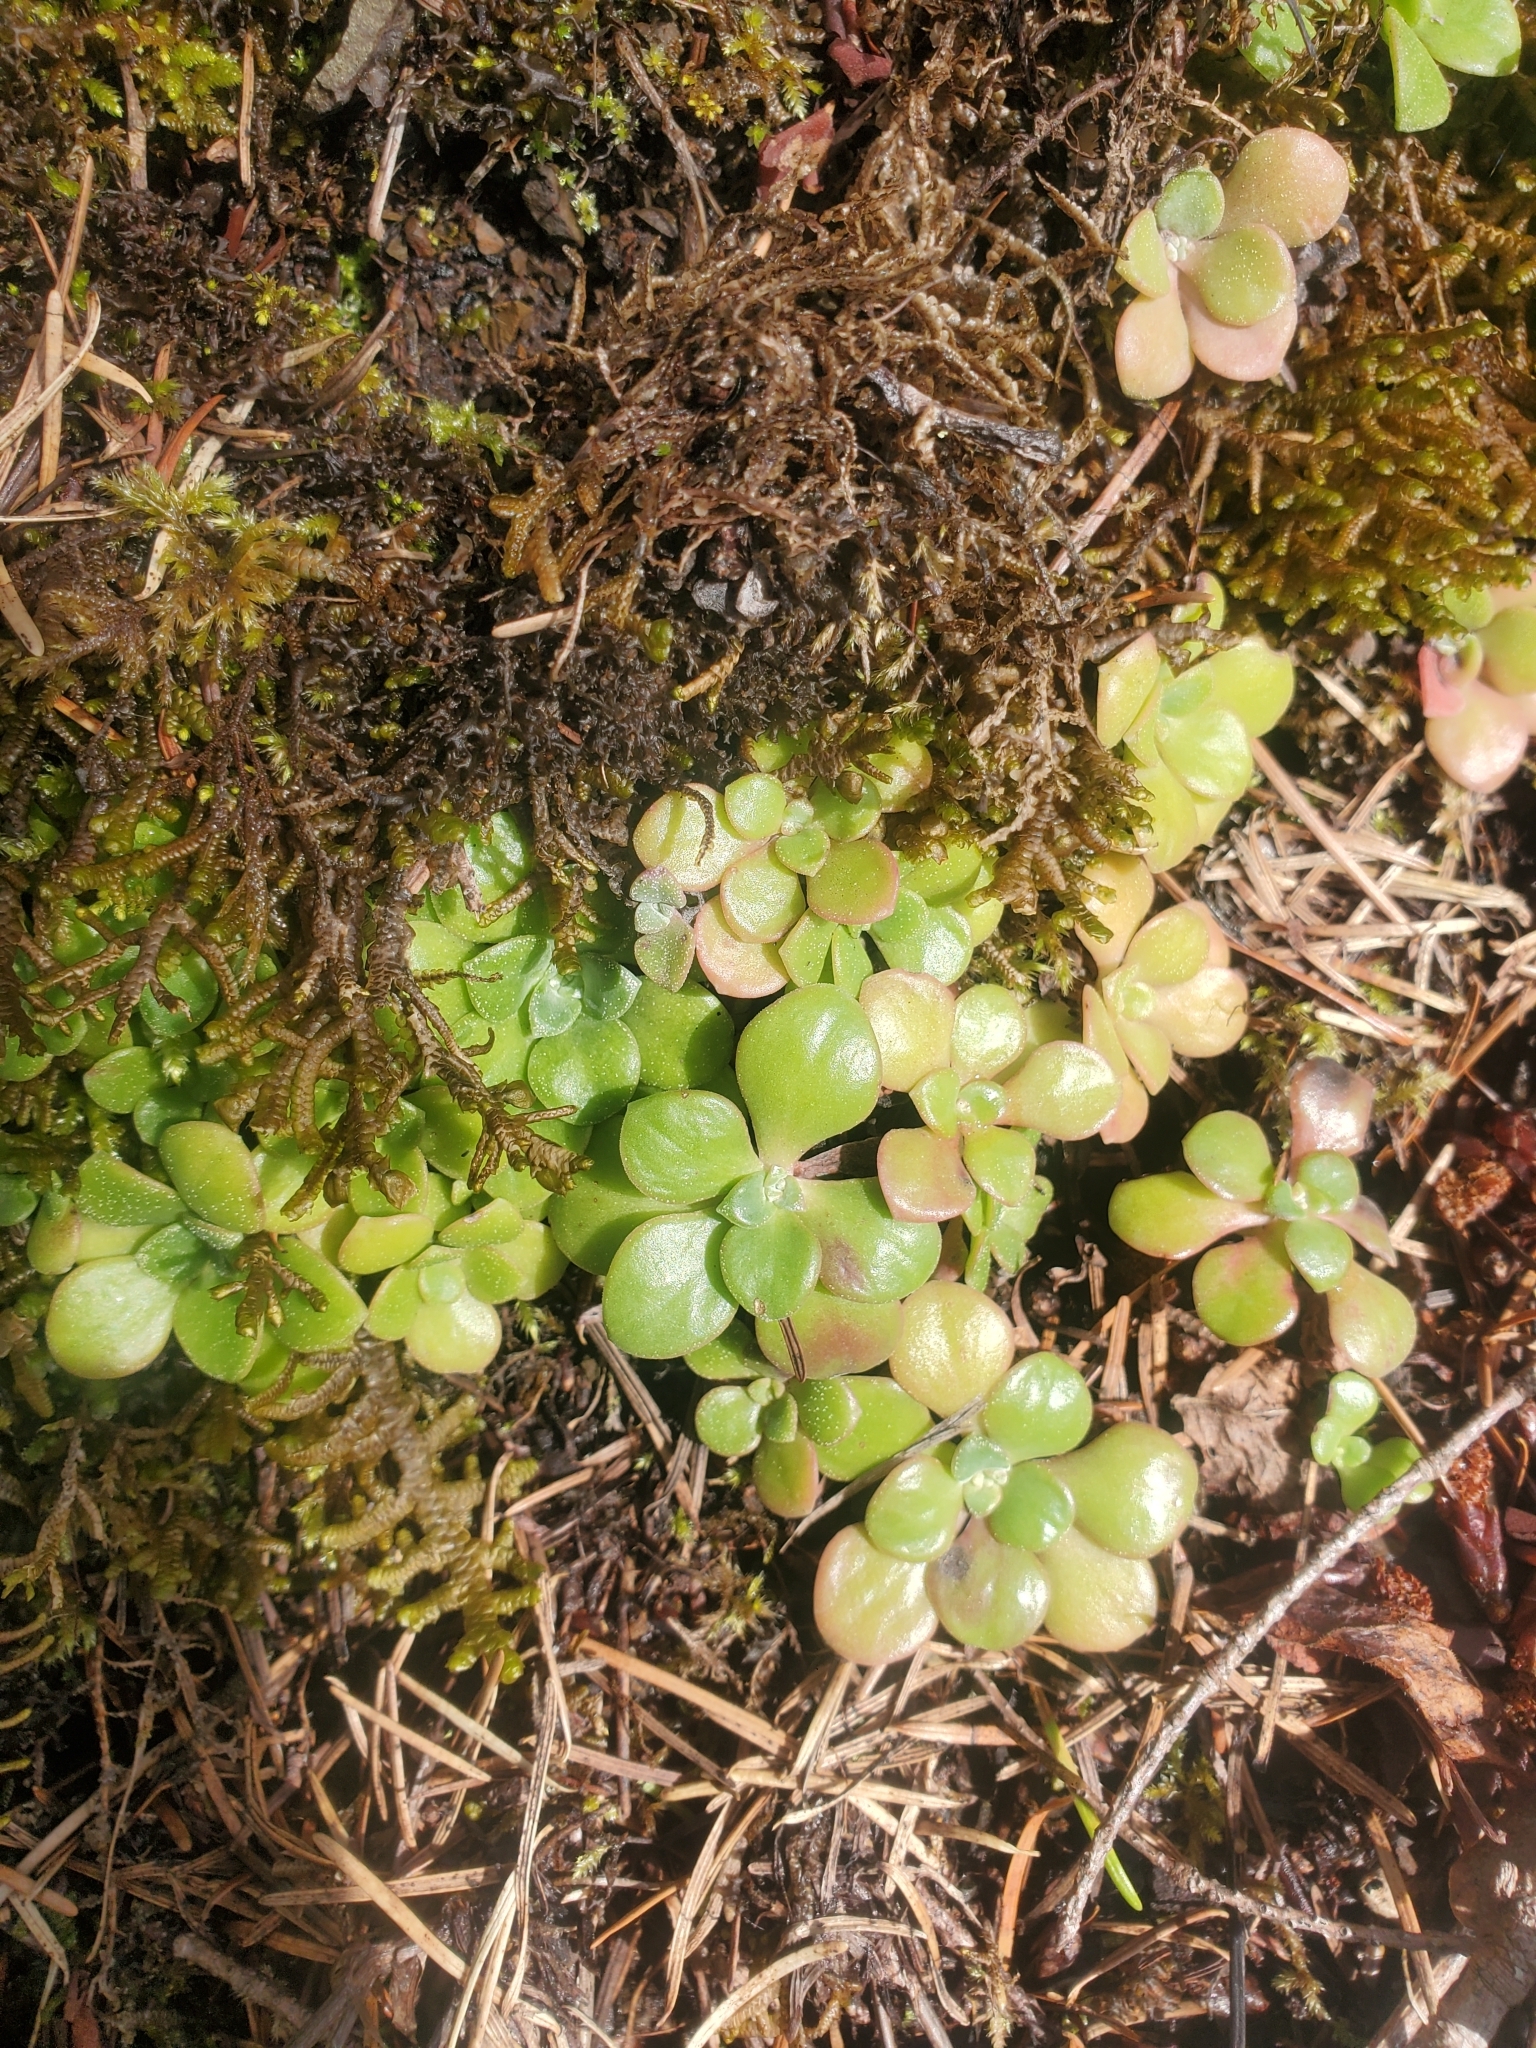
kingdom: Plantae
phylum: Tracheophyta
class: Magnoliopsida
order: Saxifragales
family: Crassulaceae
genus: Sedum
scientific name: Sedum spathulifolium
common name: Colorado stonecrop
